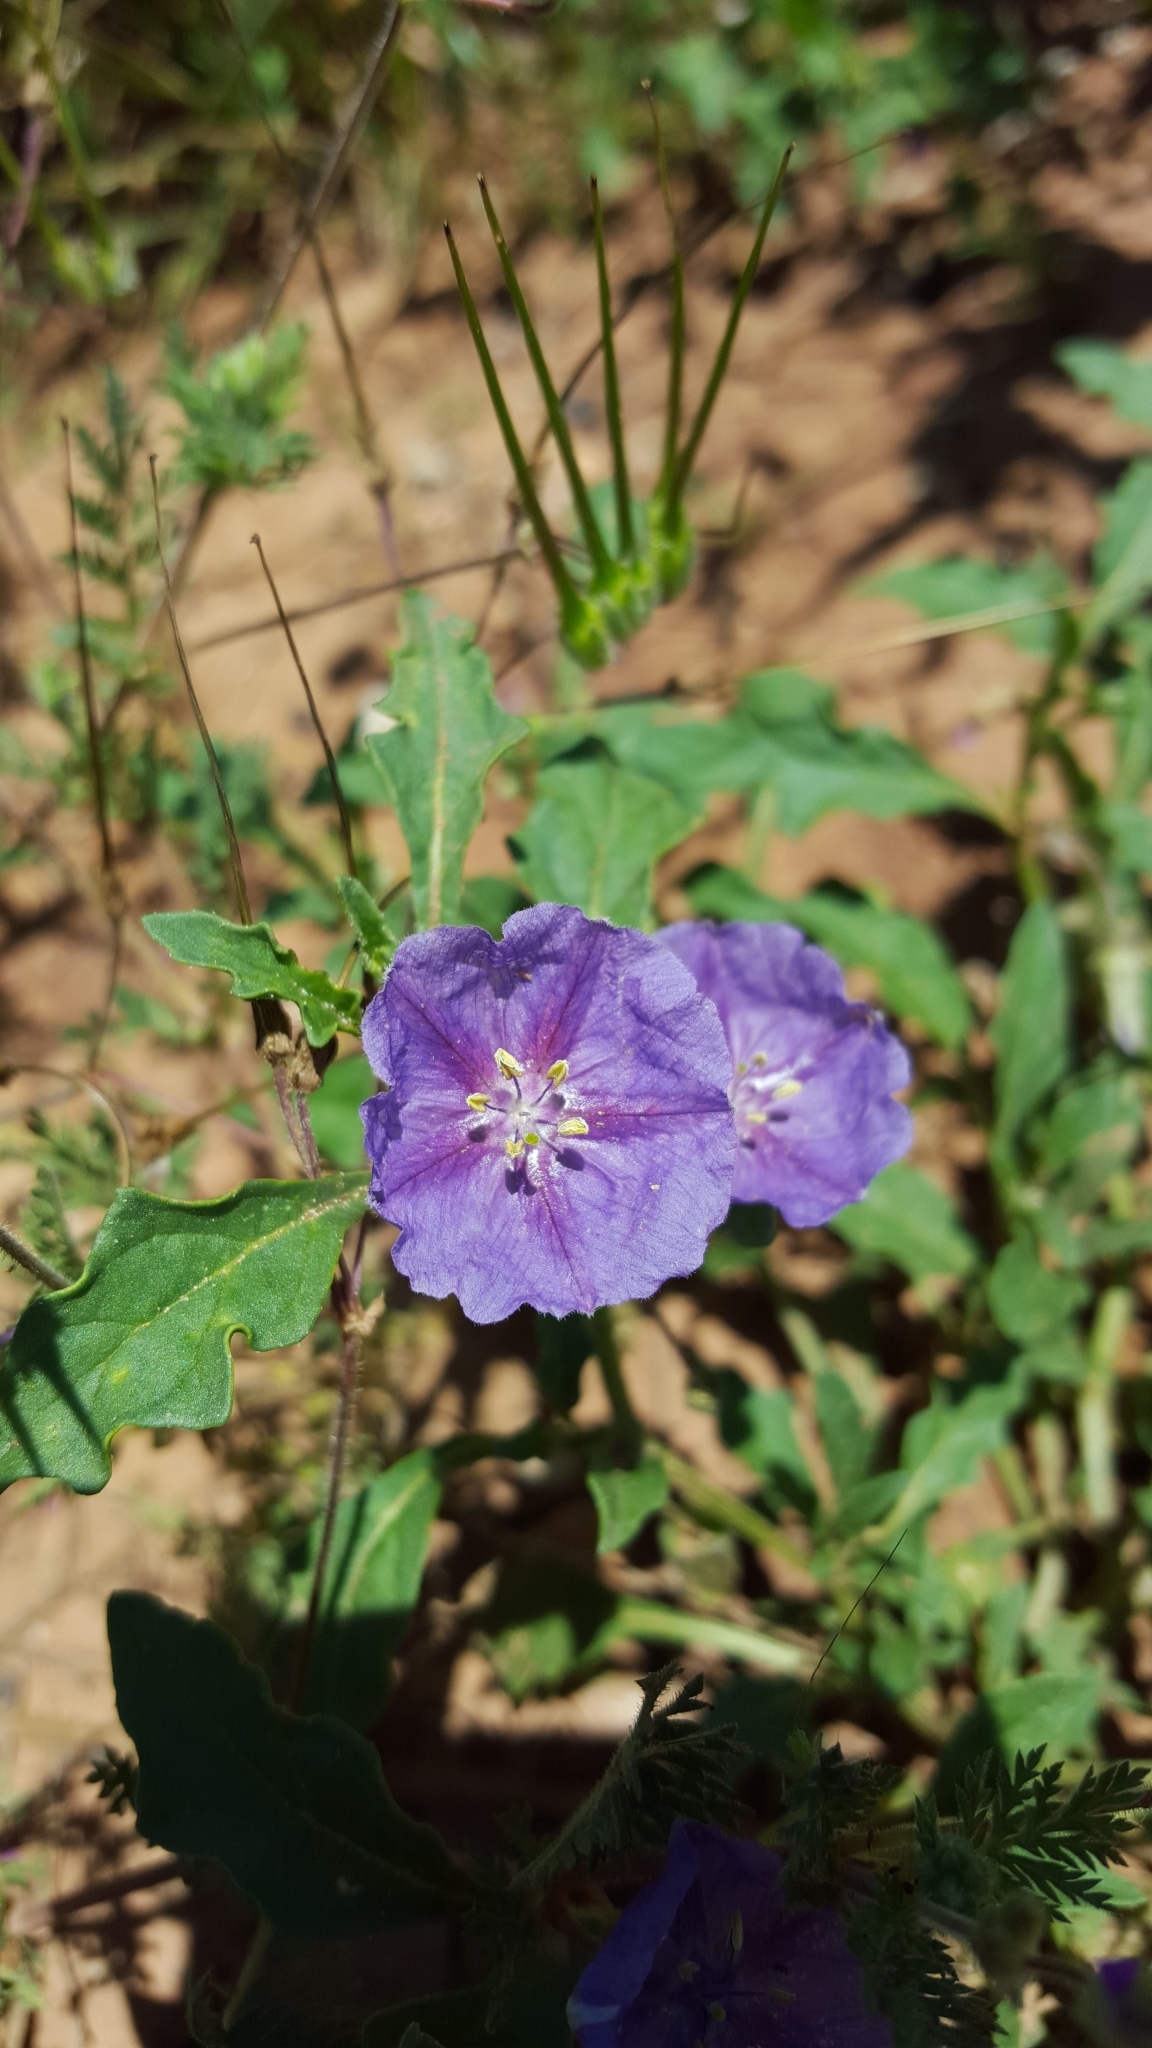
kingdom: Plantae
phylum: Tracheophyta
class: Magnoliopsida
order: Solanales
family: Solanaceae
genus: Quincula
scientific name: Quincula lobata
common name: Purple-ground-cherry
